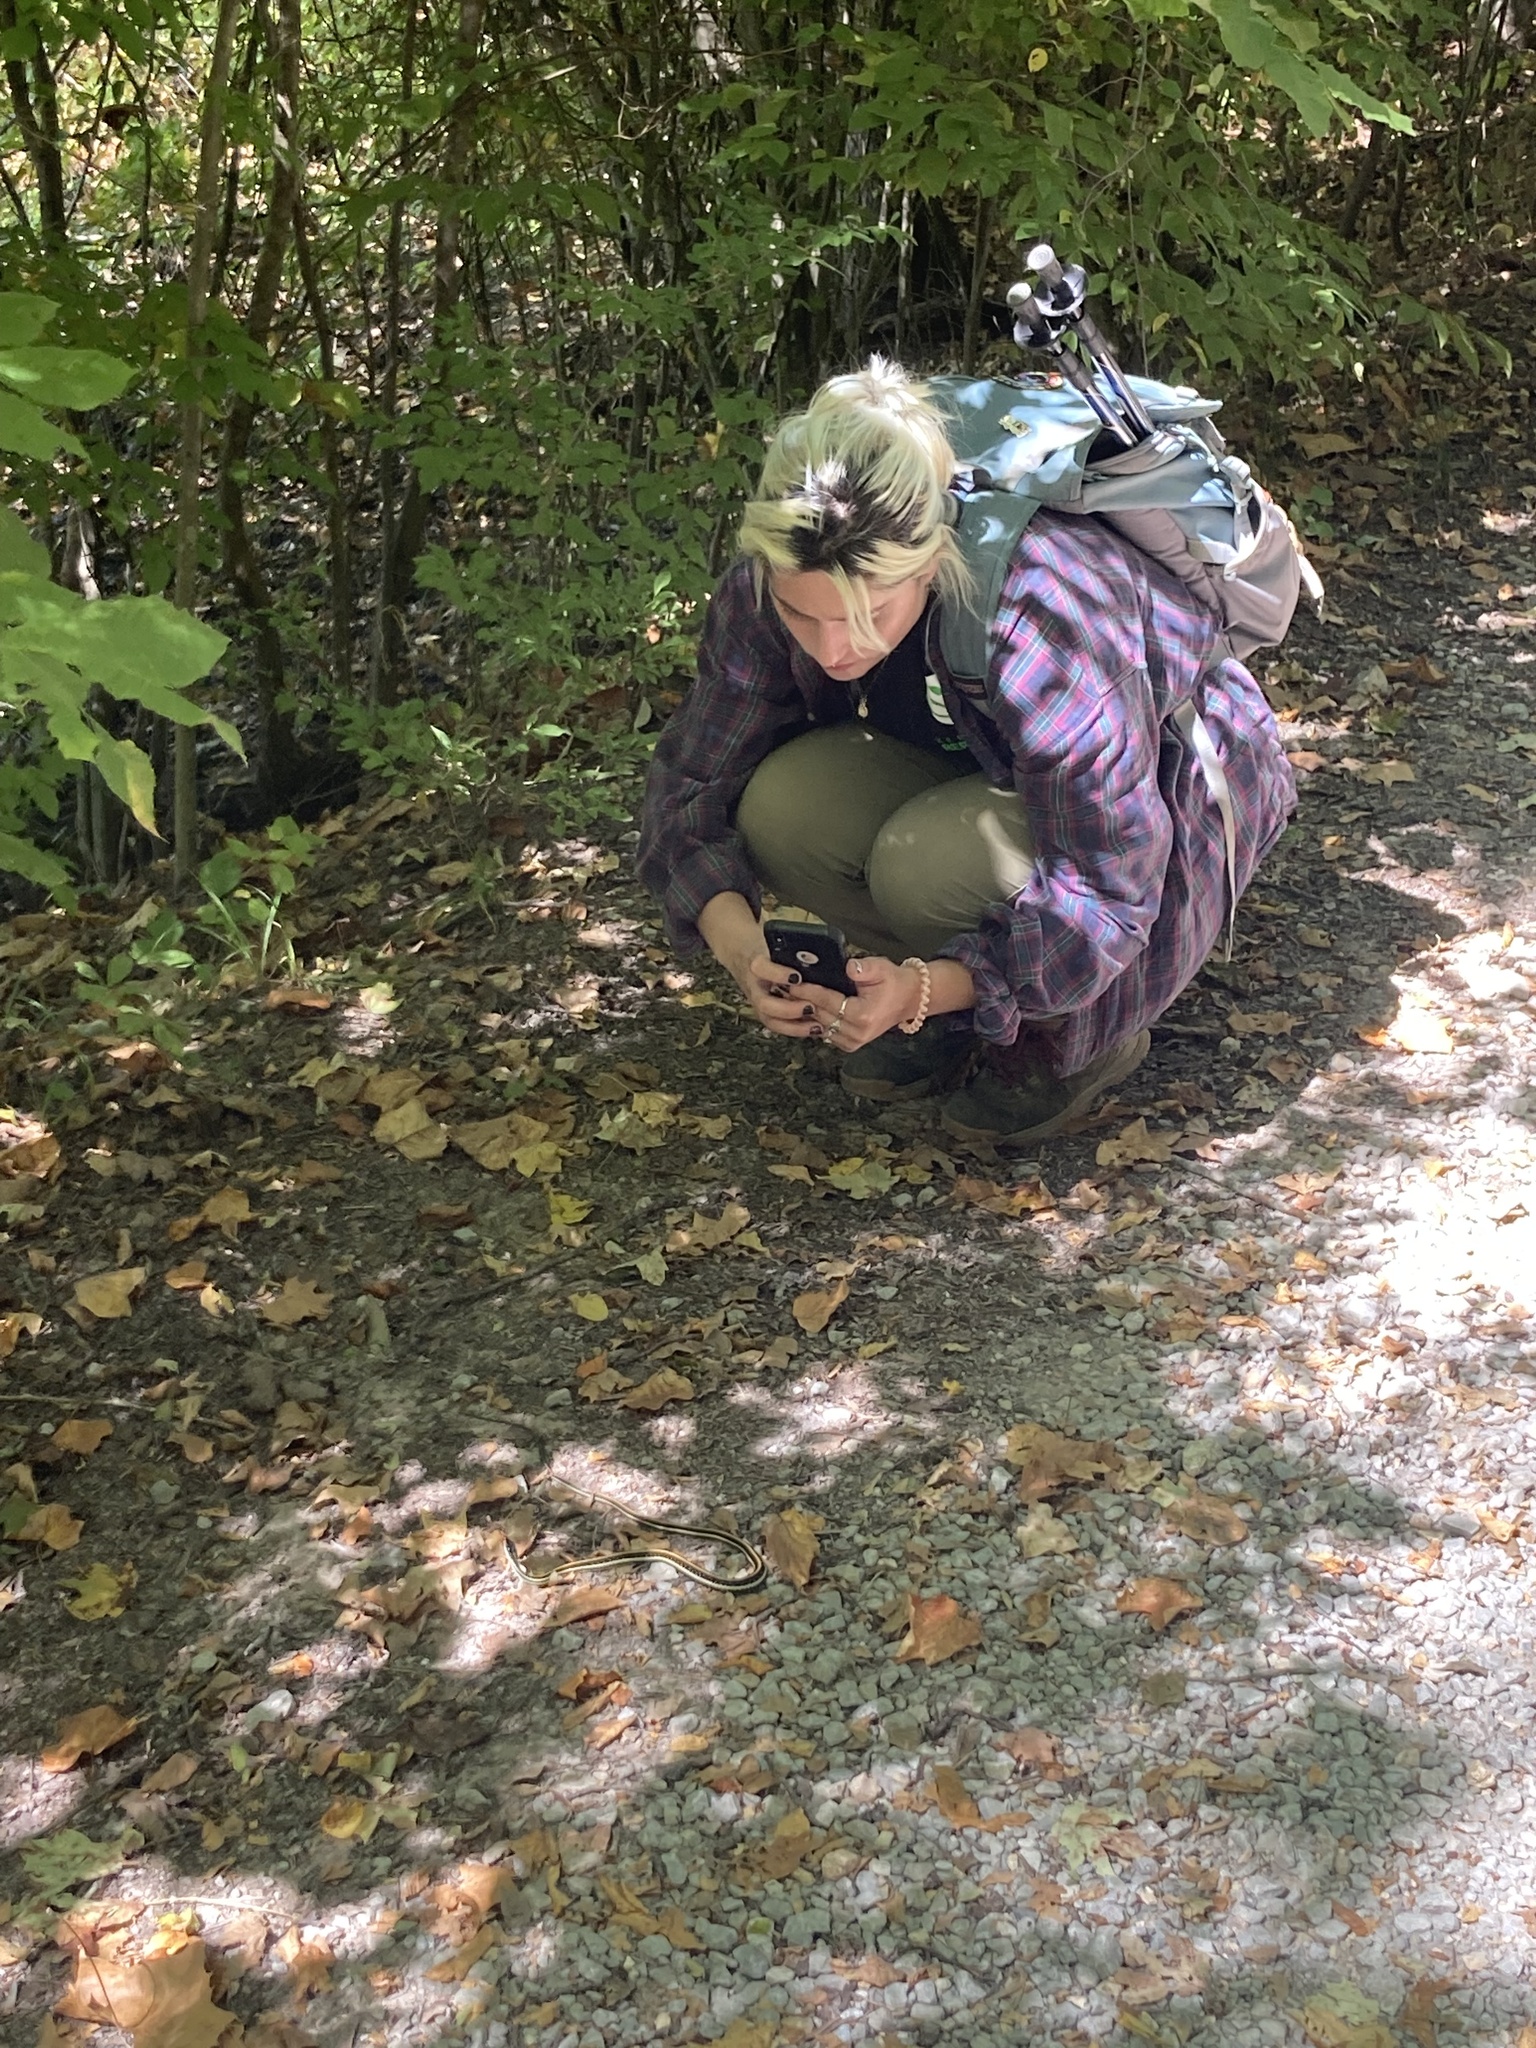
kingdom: Animalia
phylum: Chordata
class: Squamata
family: Colubridae
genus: Thamnophis
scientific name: Thamnophis proximus
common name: Western ribbon snake
